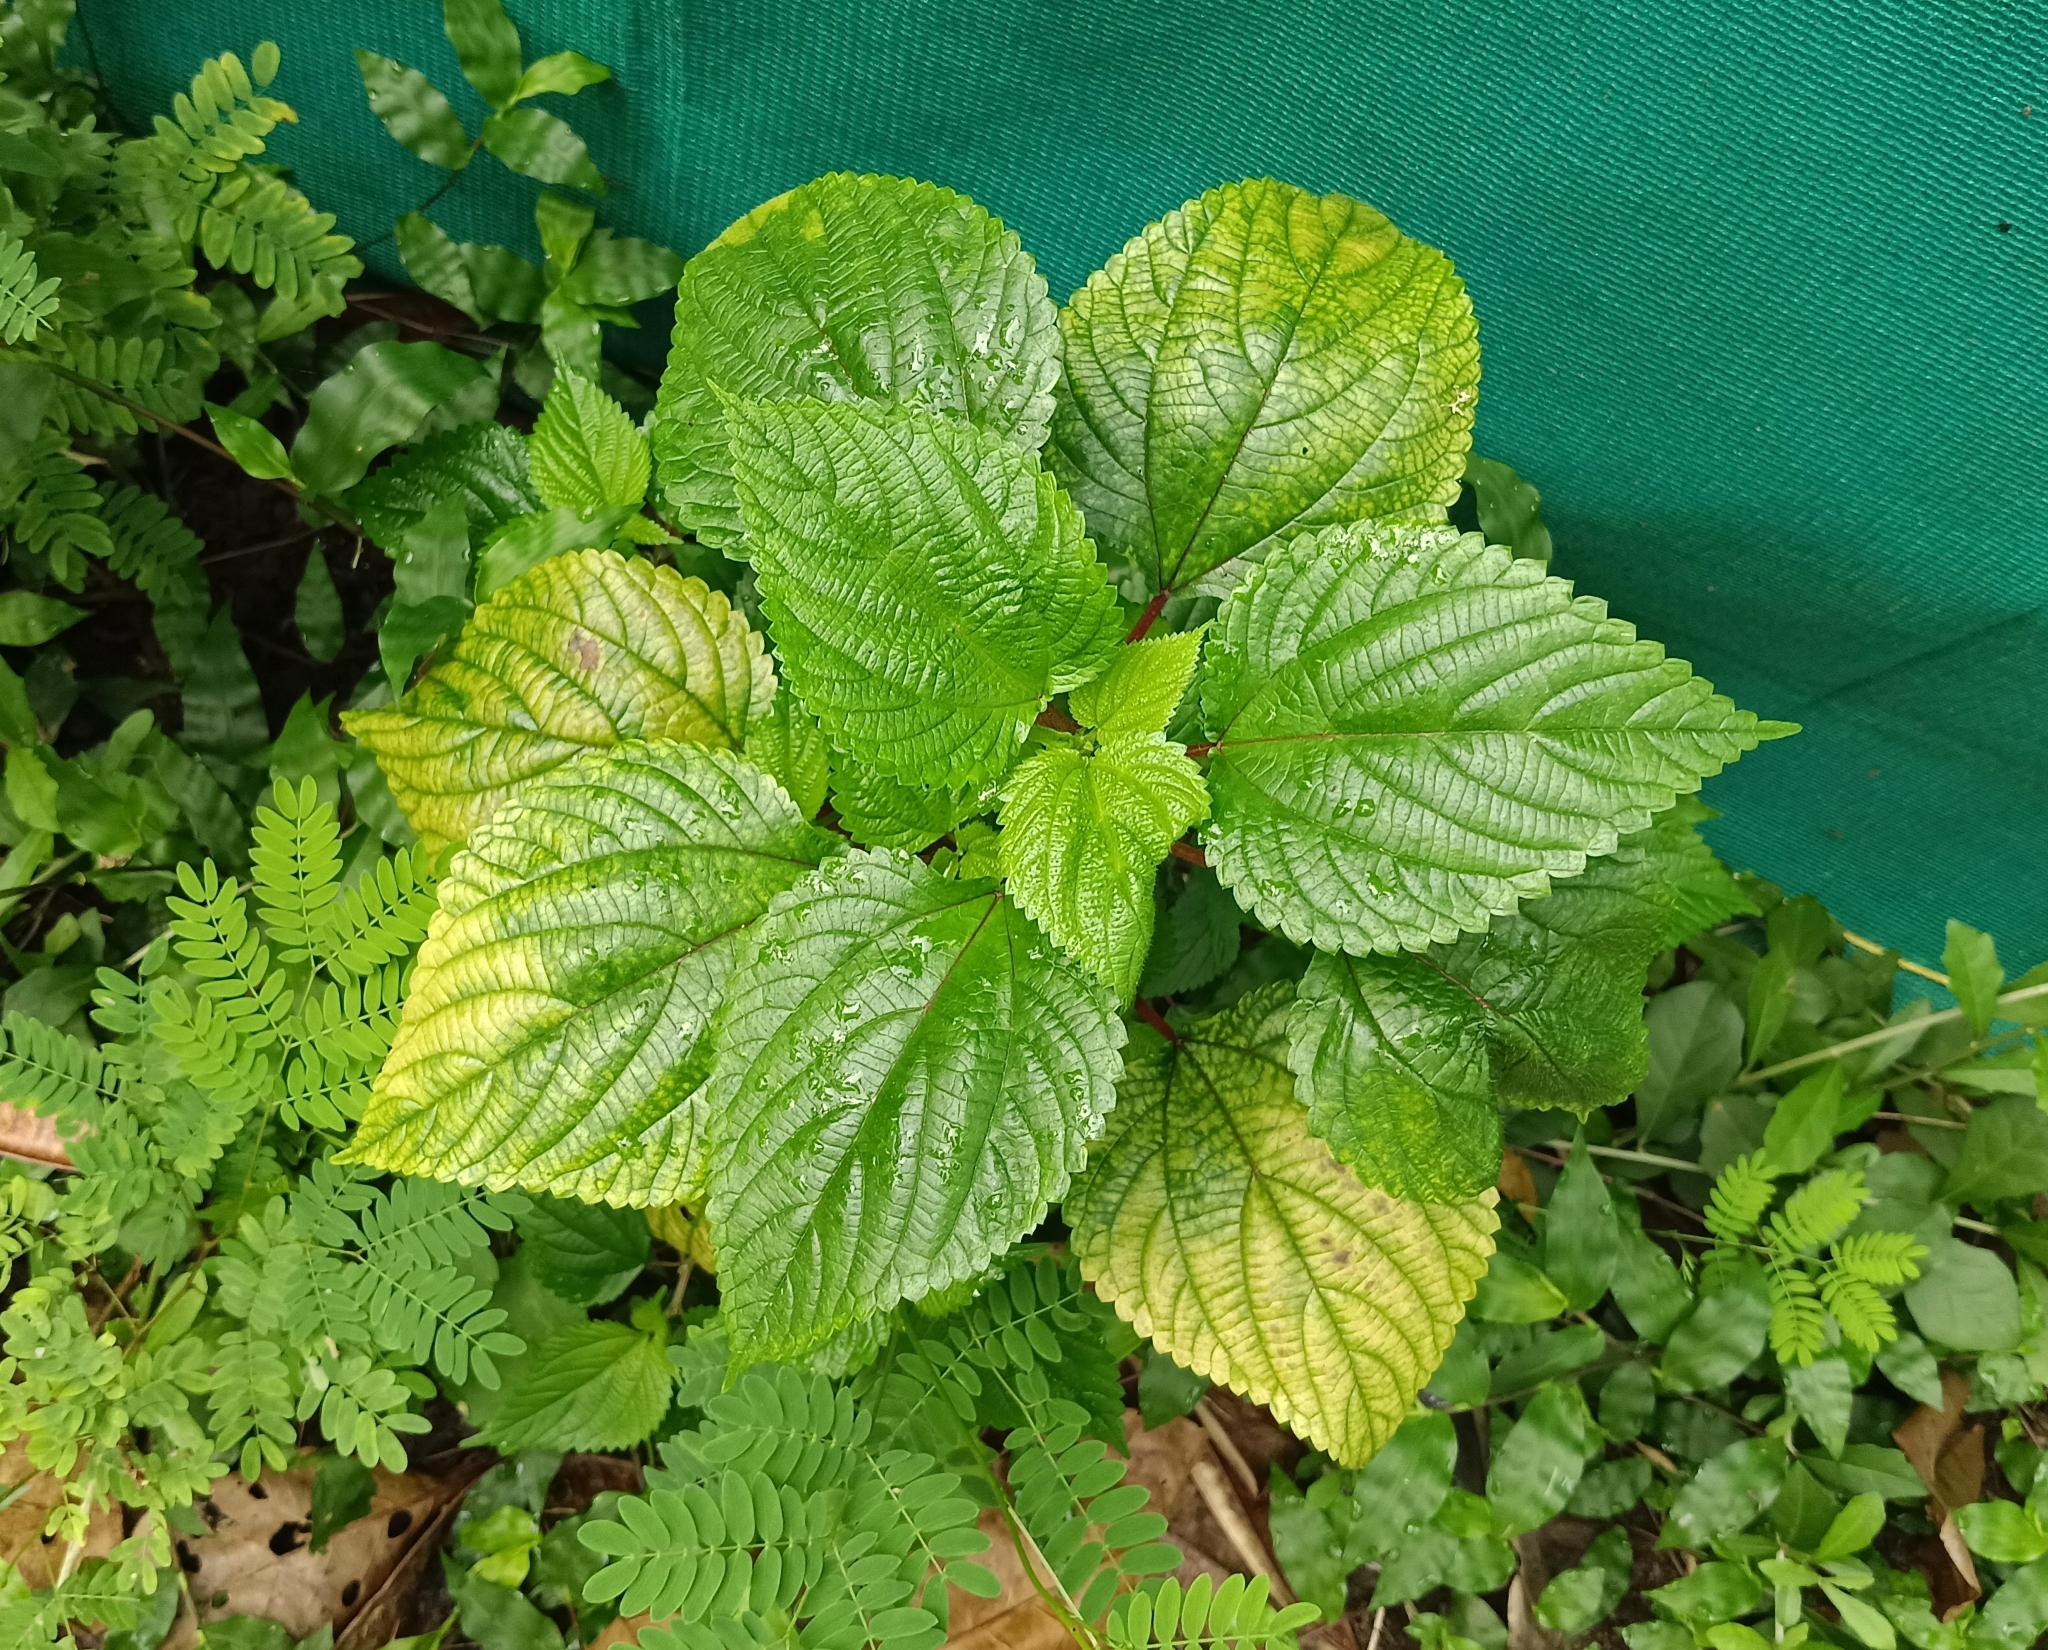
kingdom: Plantae
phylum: Tracheophyta
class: Magnoliopsida
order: Rosales
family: Urticaceae
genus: Laportea
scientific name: Laportea aestuans
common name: West indian woodnettle
